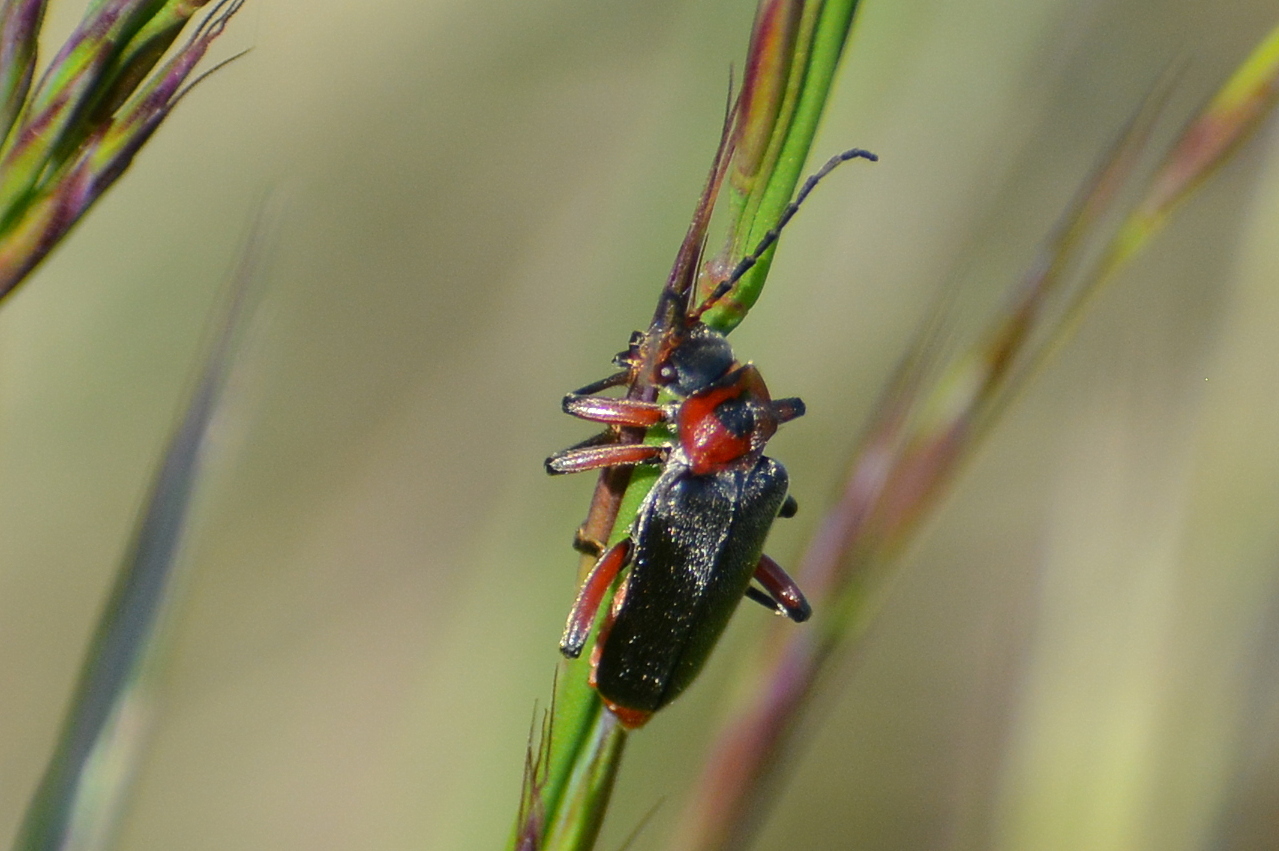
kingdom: Animalia
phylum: Arthropoda
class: Insecta
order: Coleoptera
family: Cantharidae
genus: Cantharis
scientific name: Cantharis rustica
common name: Soldier beetle
